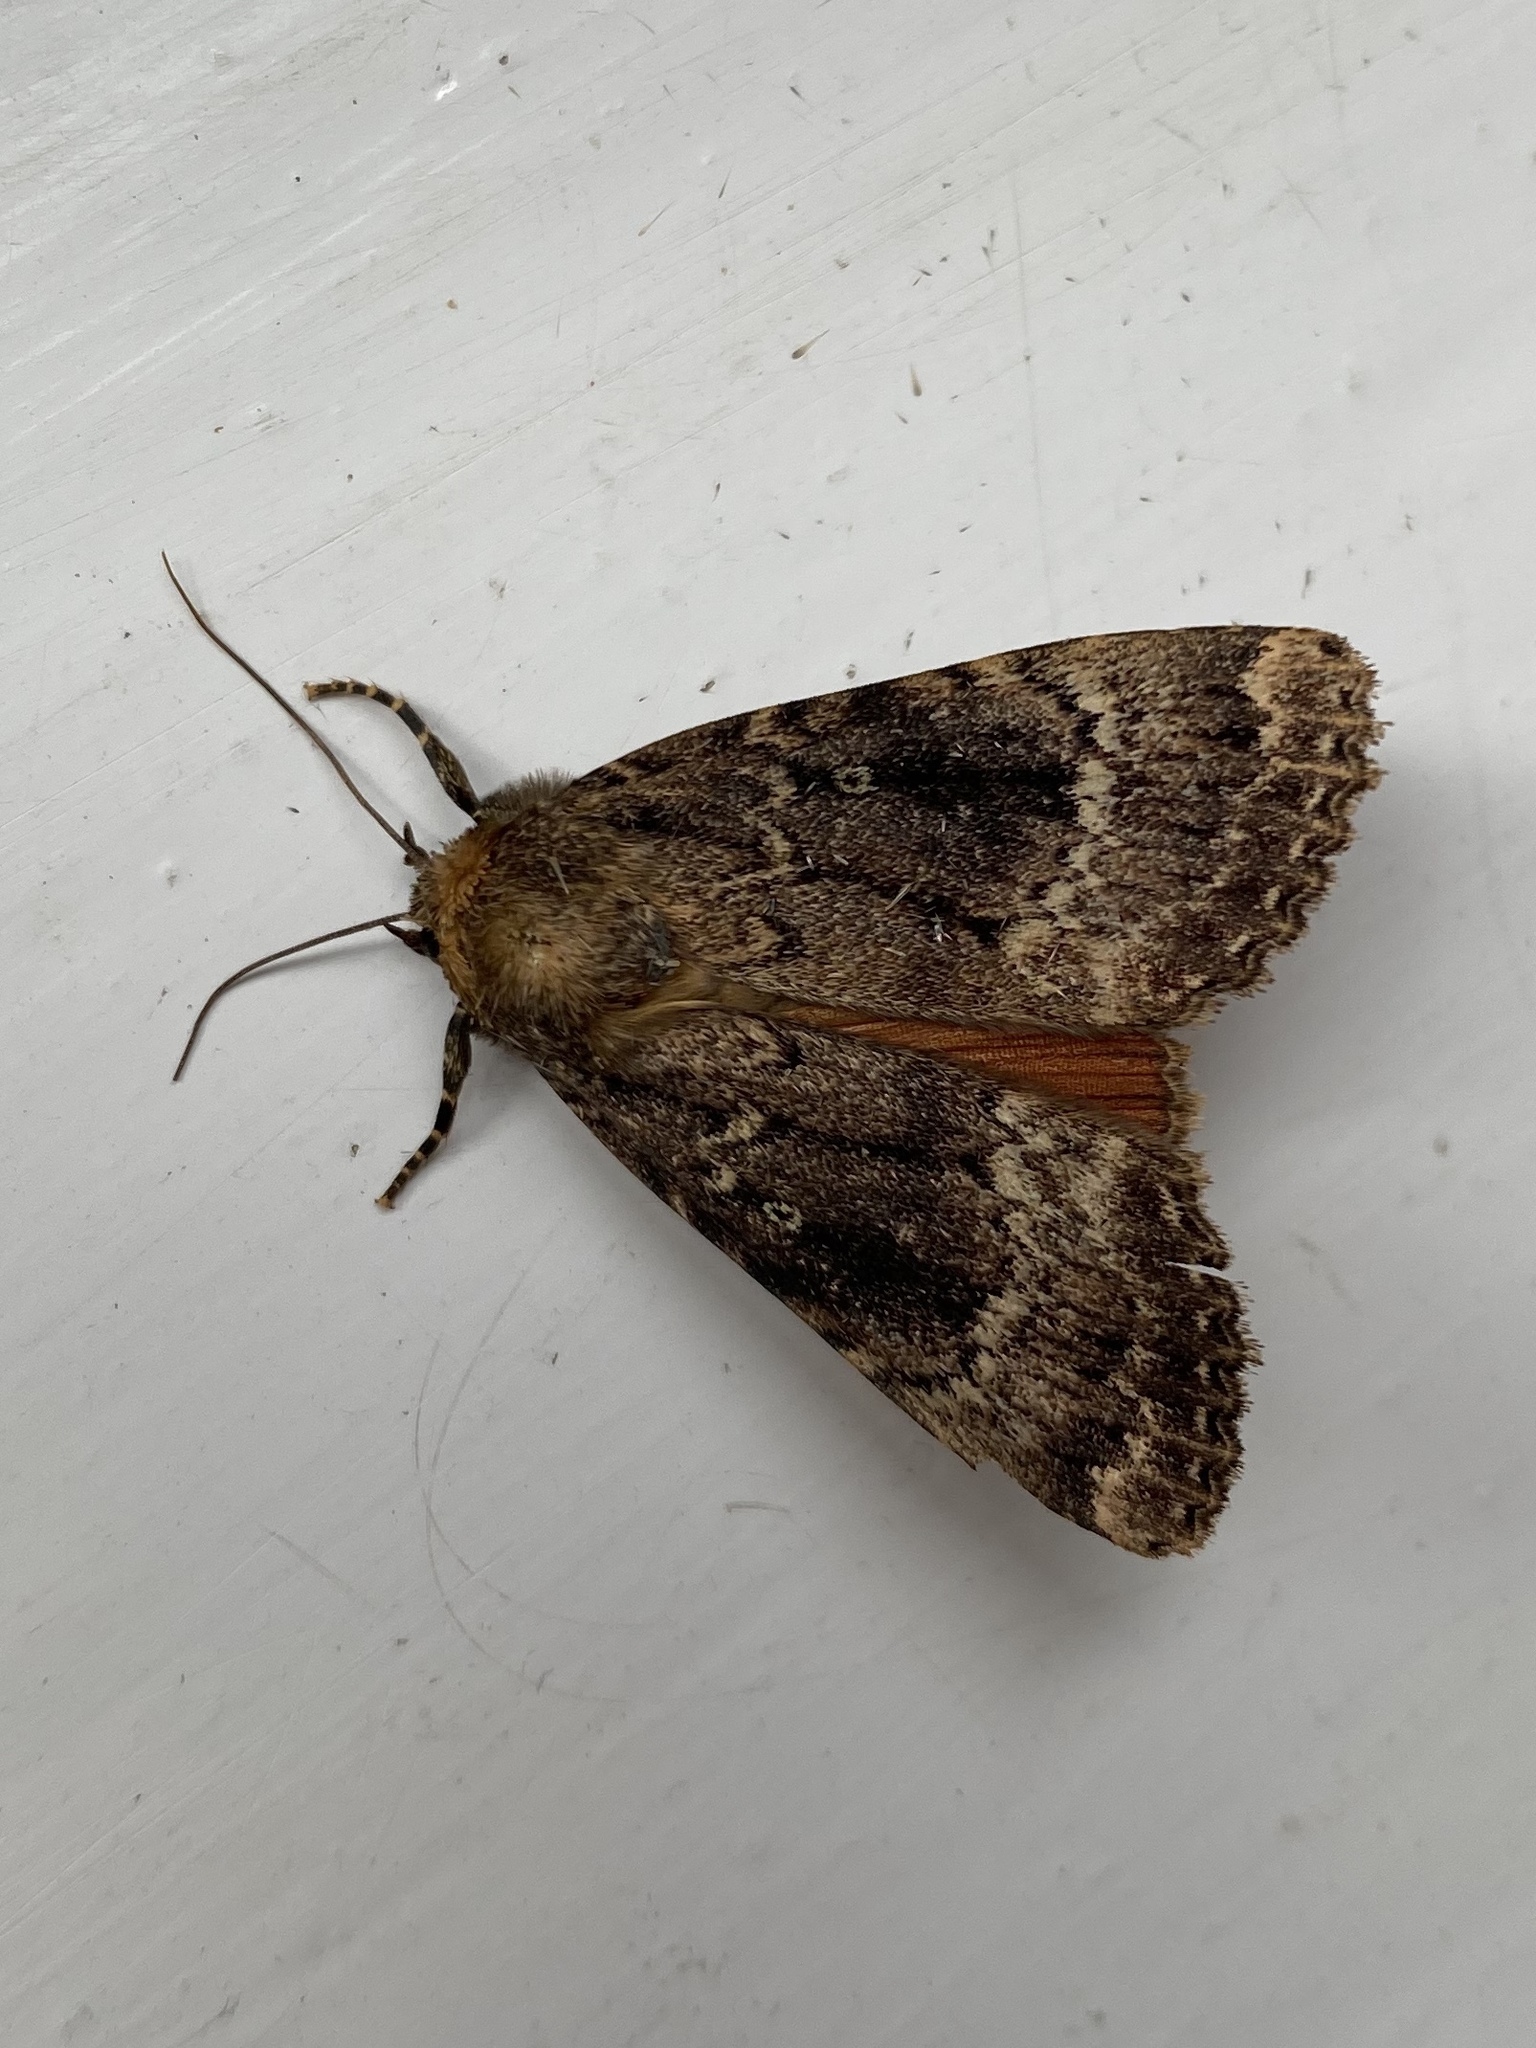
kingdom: Animalia
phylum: Arthropoda
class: Insecta
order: Lepidoptera
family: Noctuidae
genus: Amphipyra
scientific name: Amphipyra pyramidea
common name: Copper underwing
